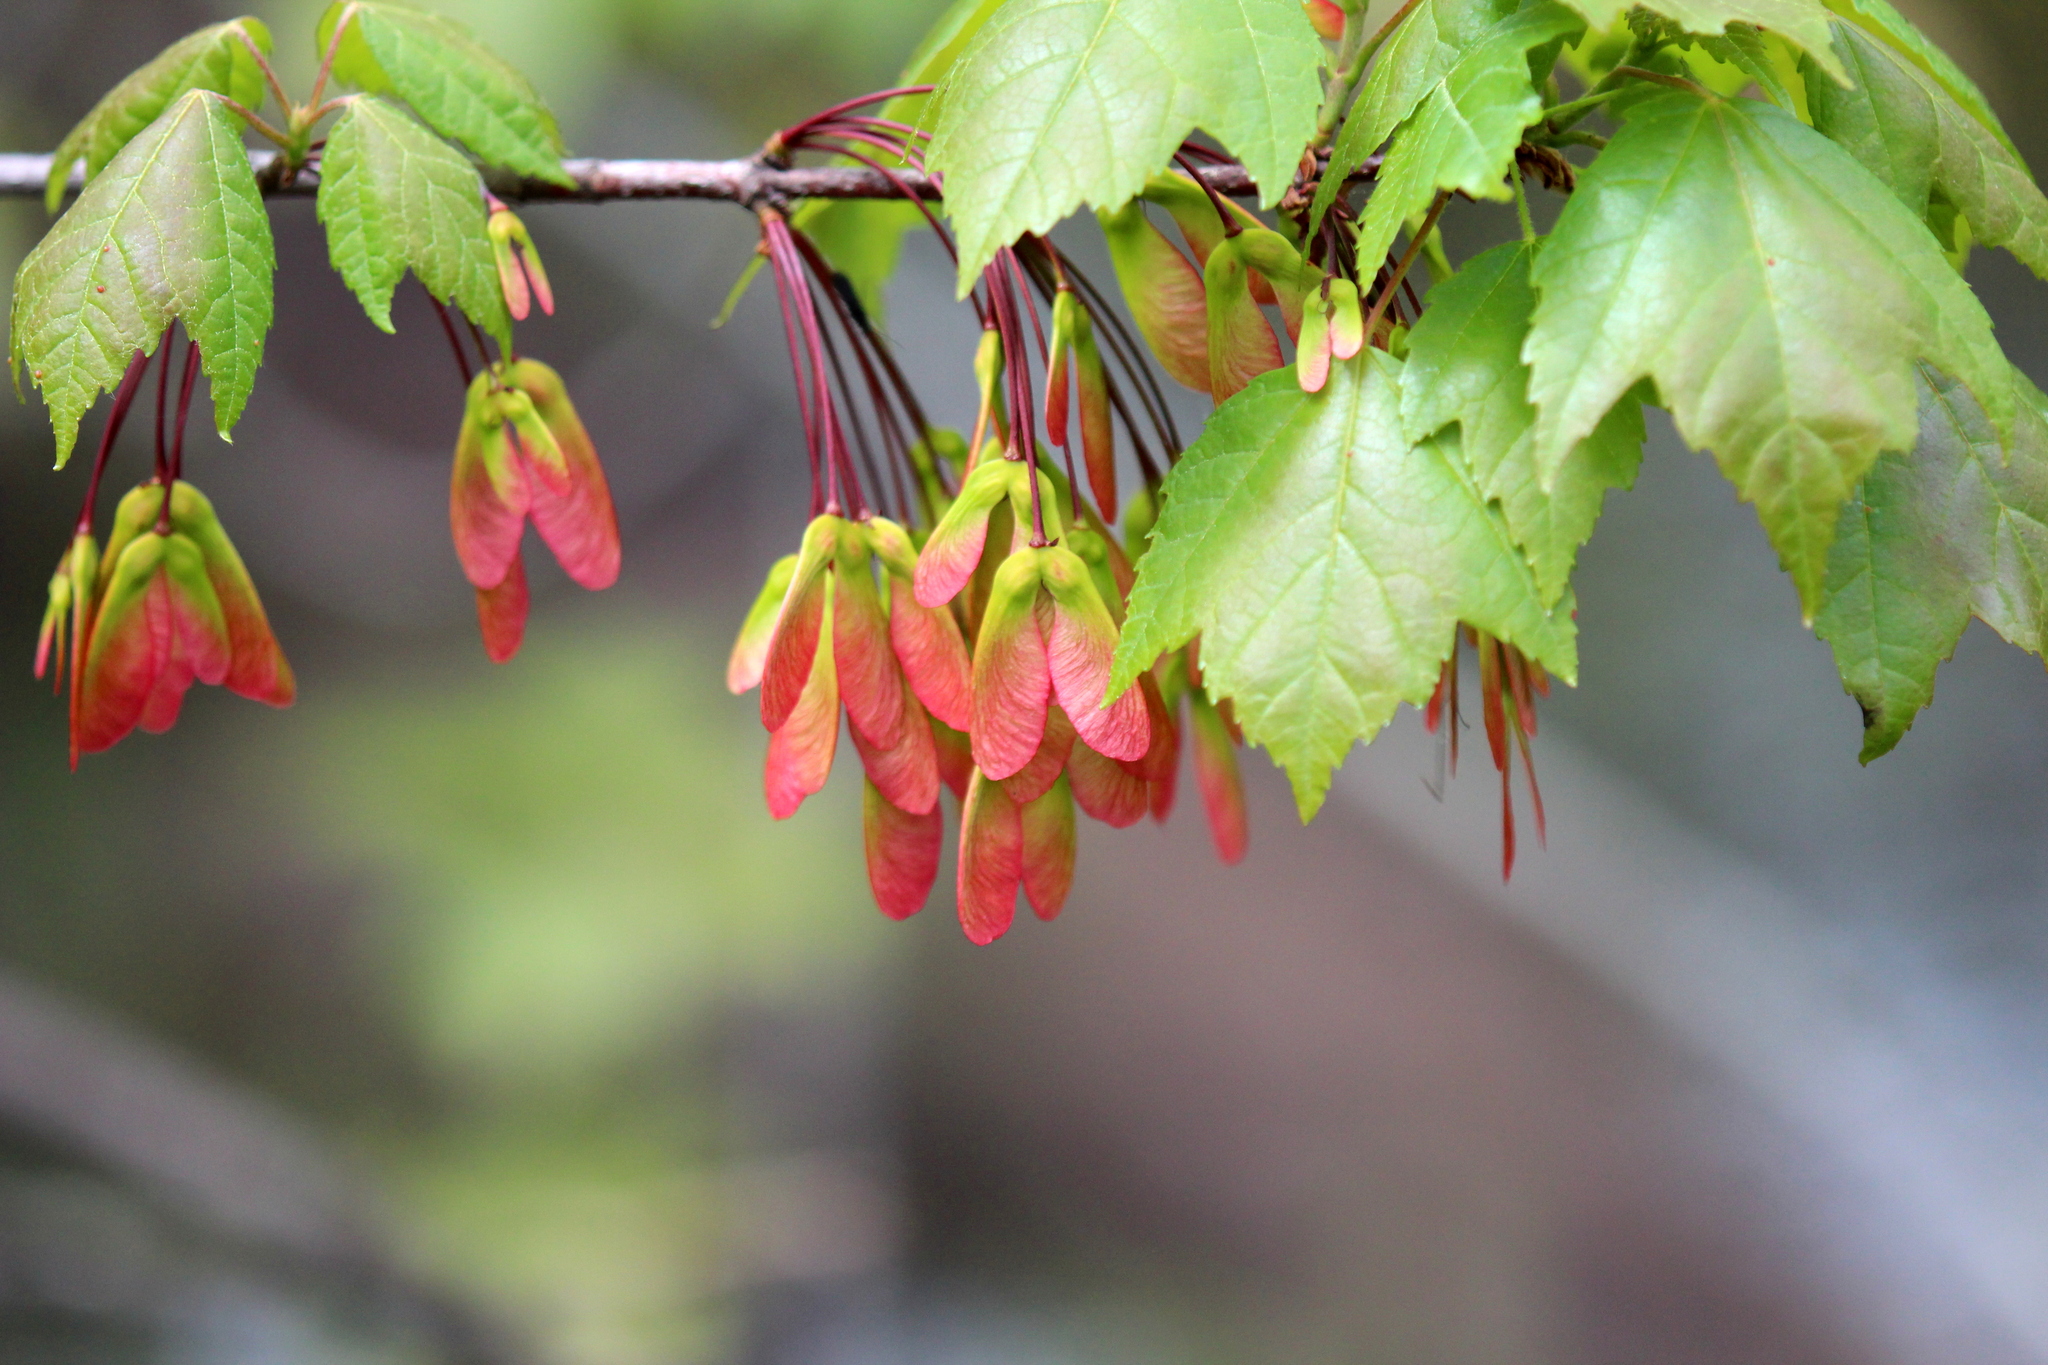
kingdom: Plantae
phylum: Tracheophyta
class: Magnoliopsida
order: Sapindales
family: Sapindaceae
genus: Acer
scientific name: Acer rubrum
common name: Red maple
